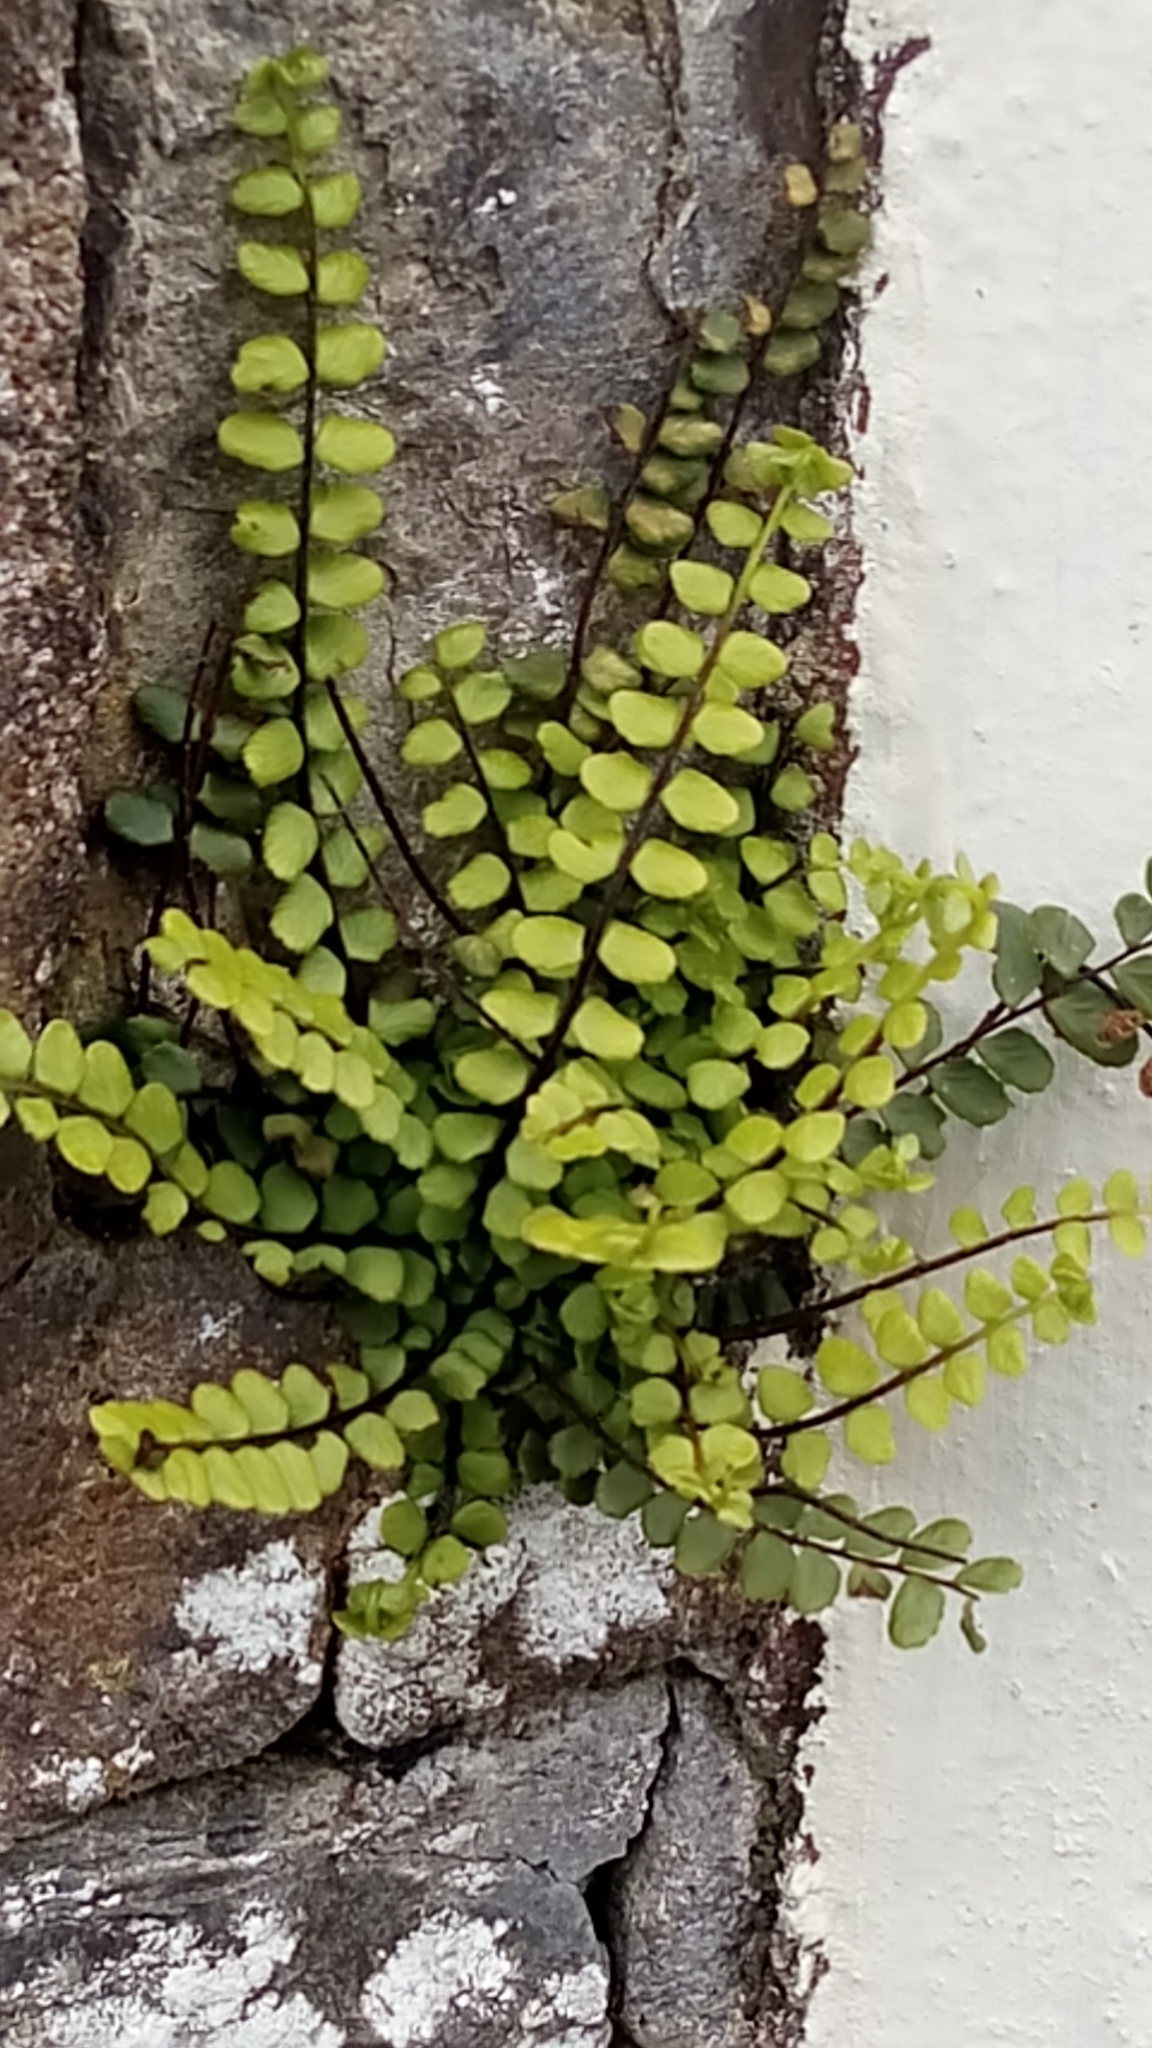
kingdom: Plantae
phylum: Tracheophyta
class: Polypodiopsida
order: Polypodiales
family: Aspleniaceae
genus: Asplenium
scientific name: Asplenium trichomanes
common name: Maidenhair spleenwort
